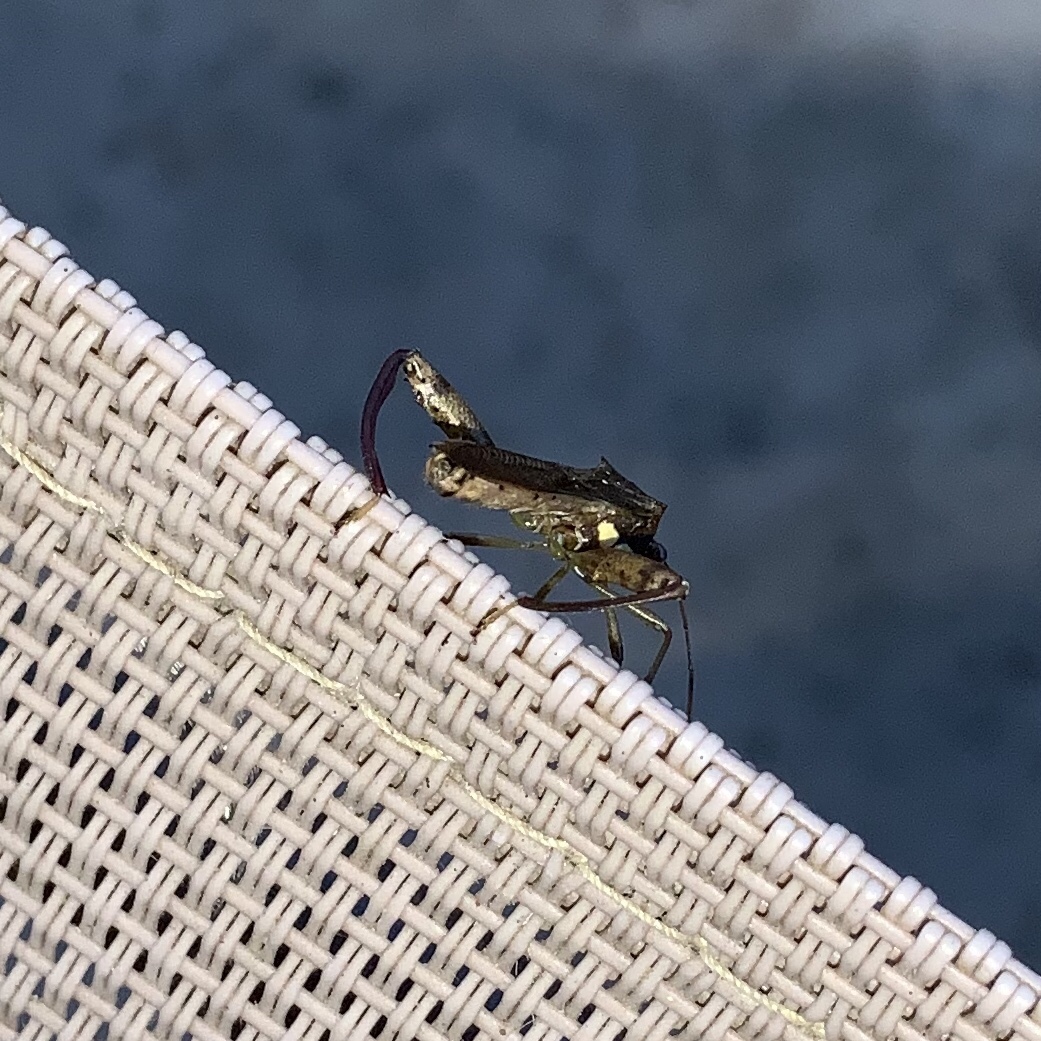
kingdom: Animalia
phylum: Arthropoda
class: Insecta
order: Hemiptera
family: Alydidae
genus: Hyalymenus
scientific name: Hyalymenus tarsatus
